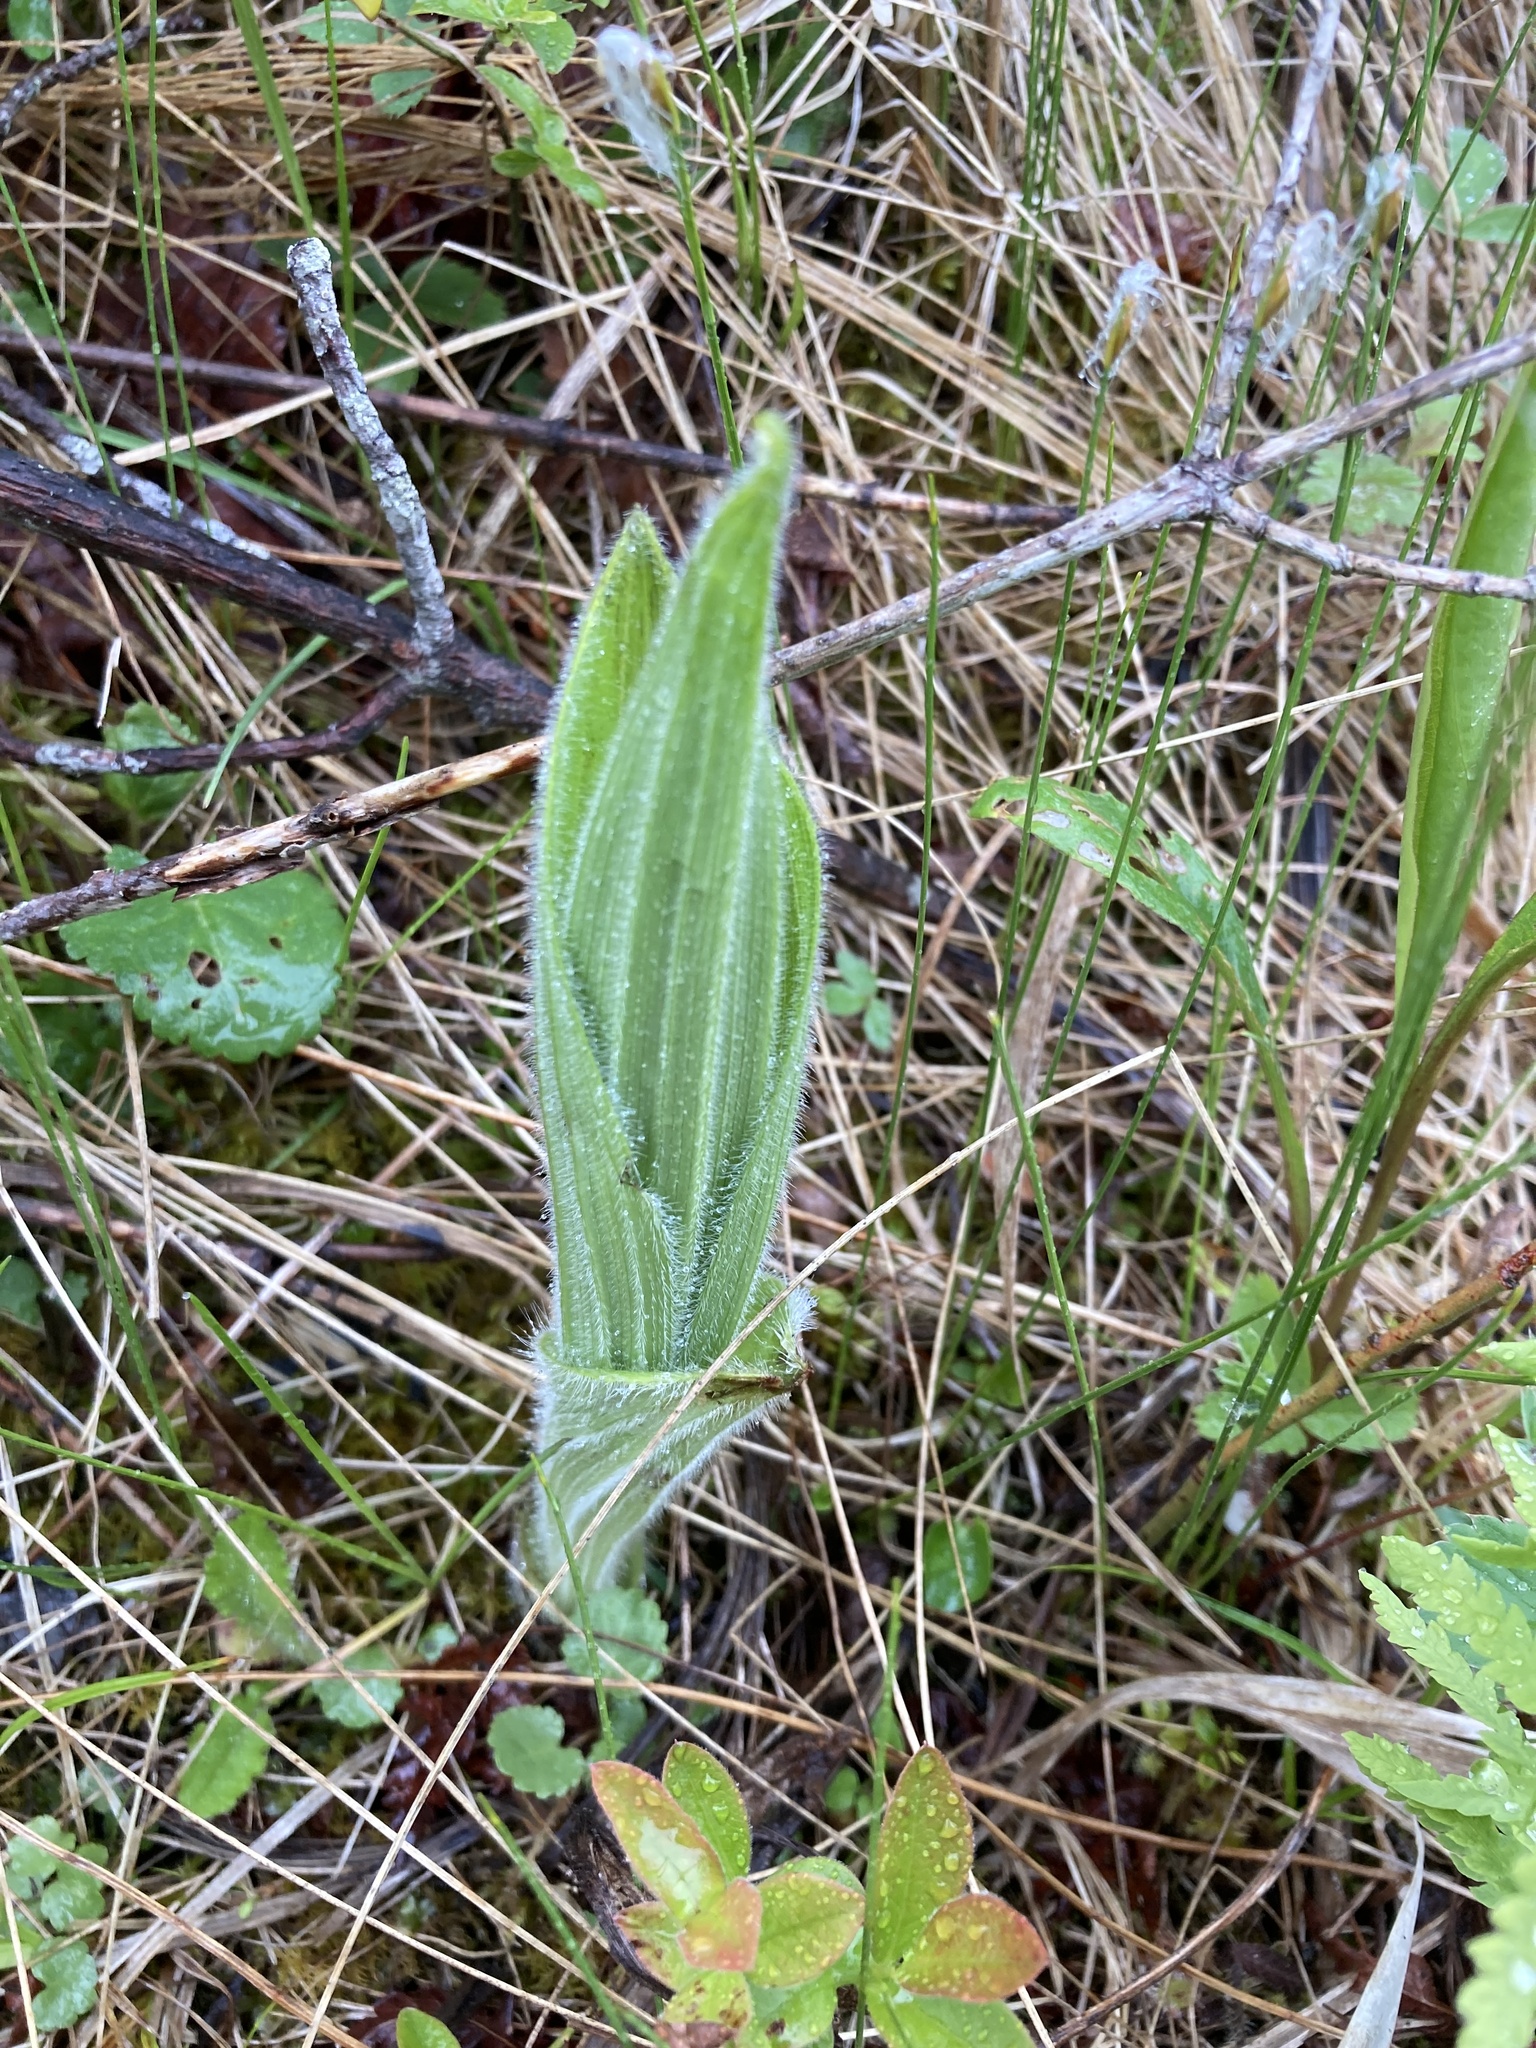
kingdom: Plantae
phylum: Tracheophyta
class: Liliopsida
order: Asparagales
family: Orchidaceae
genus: Cypripedium
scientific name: Cypripedium reginae
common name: Queen lady's-slipper
